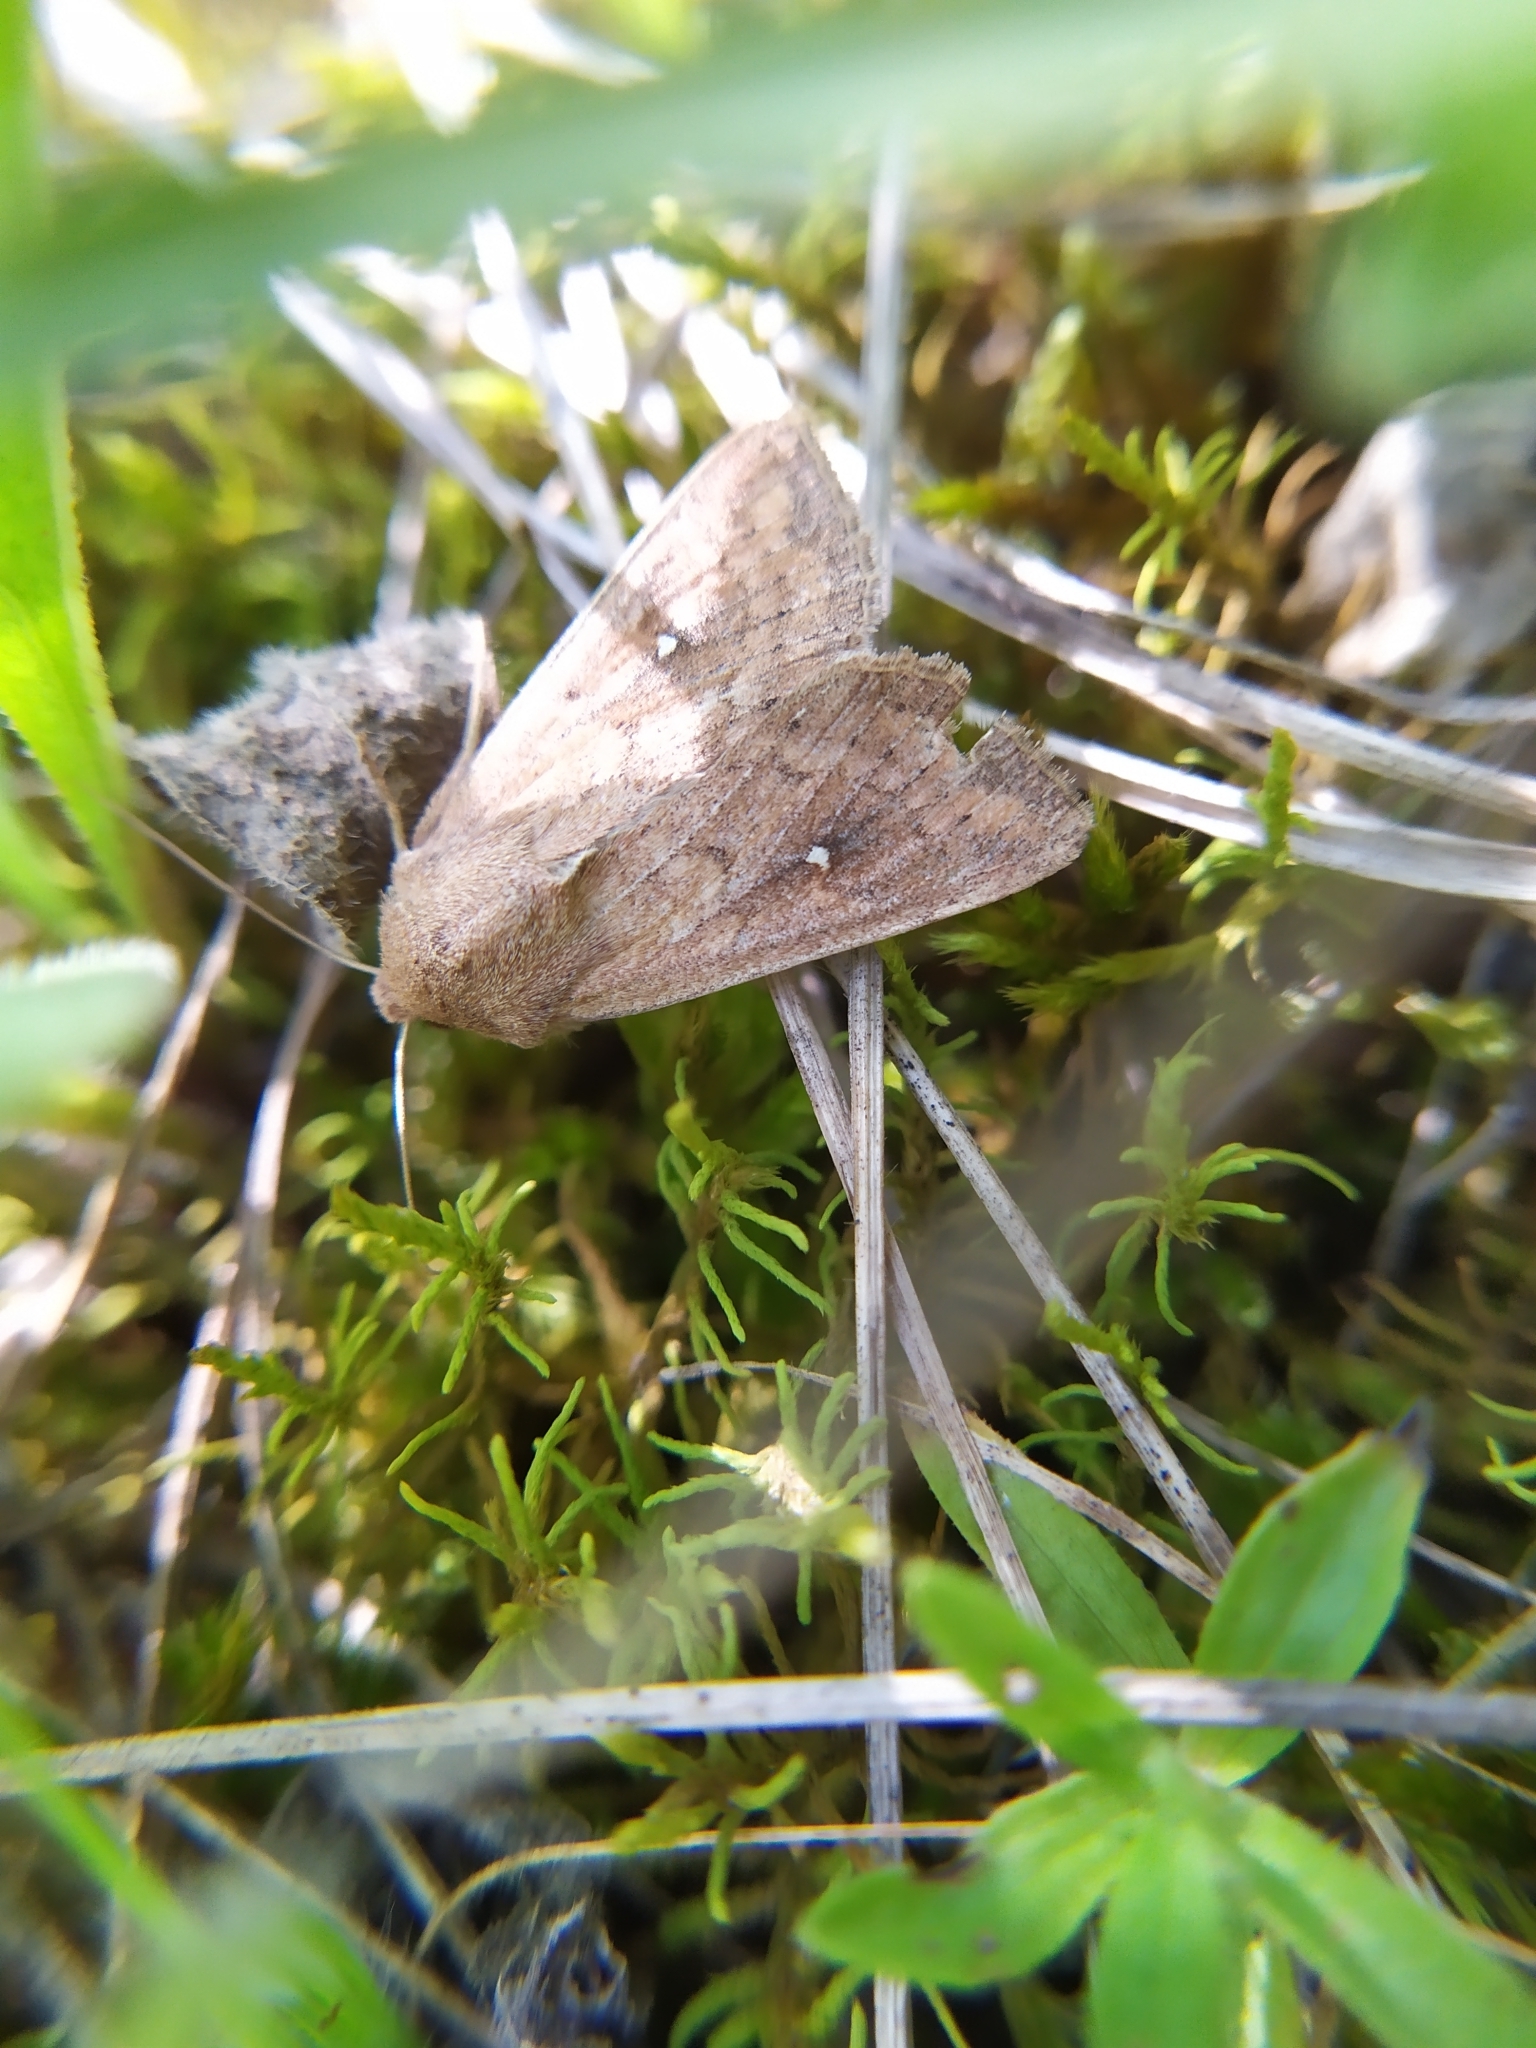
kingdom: Animalia
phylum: Arthropoda
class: Insecta
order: Lepidoptera
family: Noctuidae
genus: Mythimna
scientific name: Mythimna albipuncta
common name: White-point
